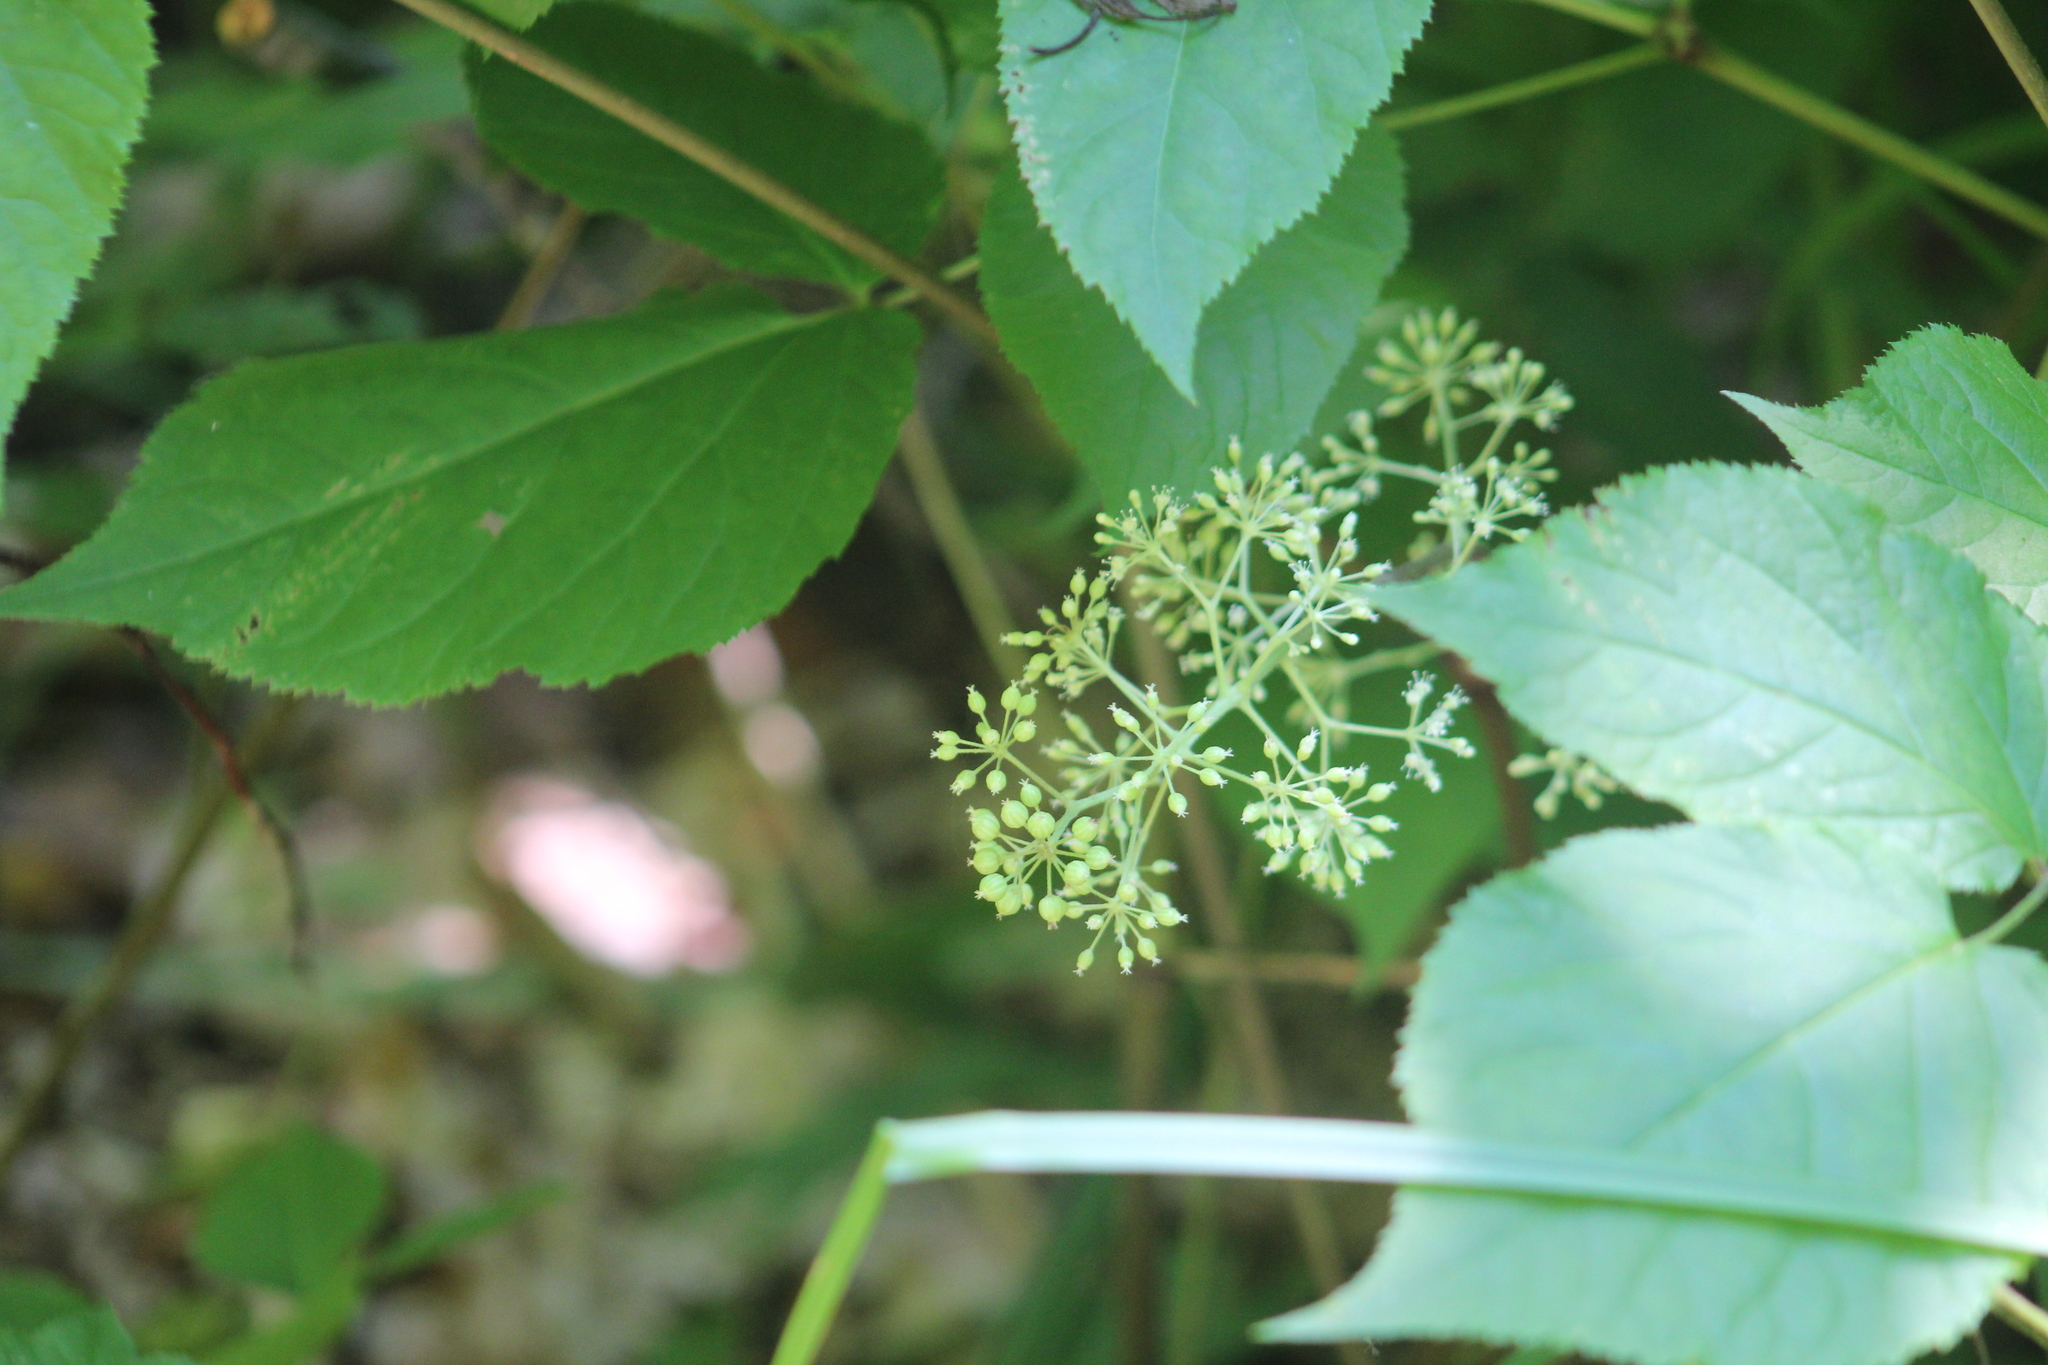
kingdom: Plantae
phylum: Tracheophyta
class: Magnoliopsida
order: Apiales
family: Araliaceae
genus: Aralia
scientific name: Aralia racemosa
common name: American-spikenard
